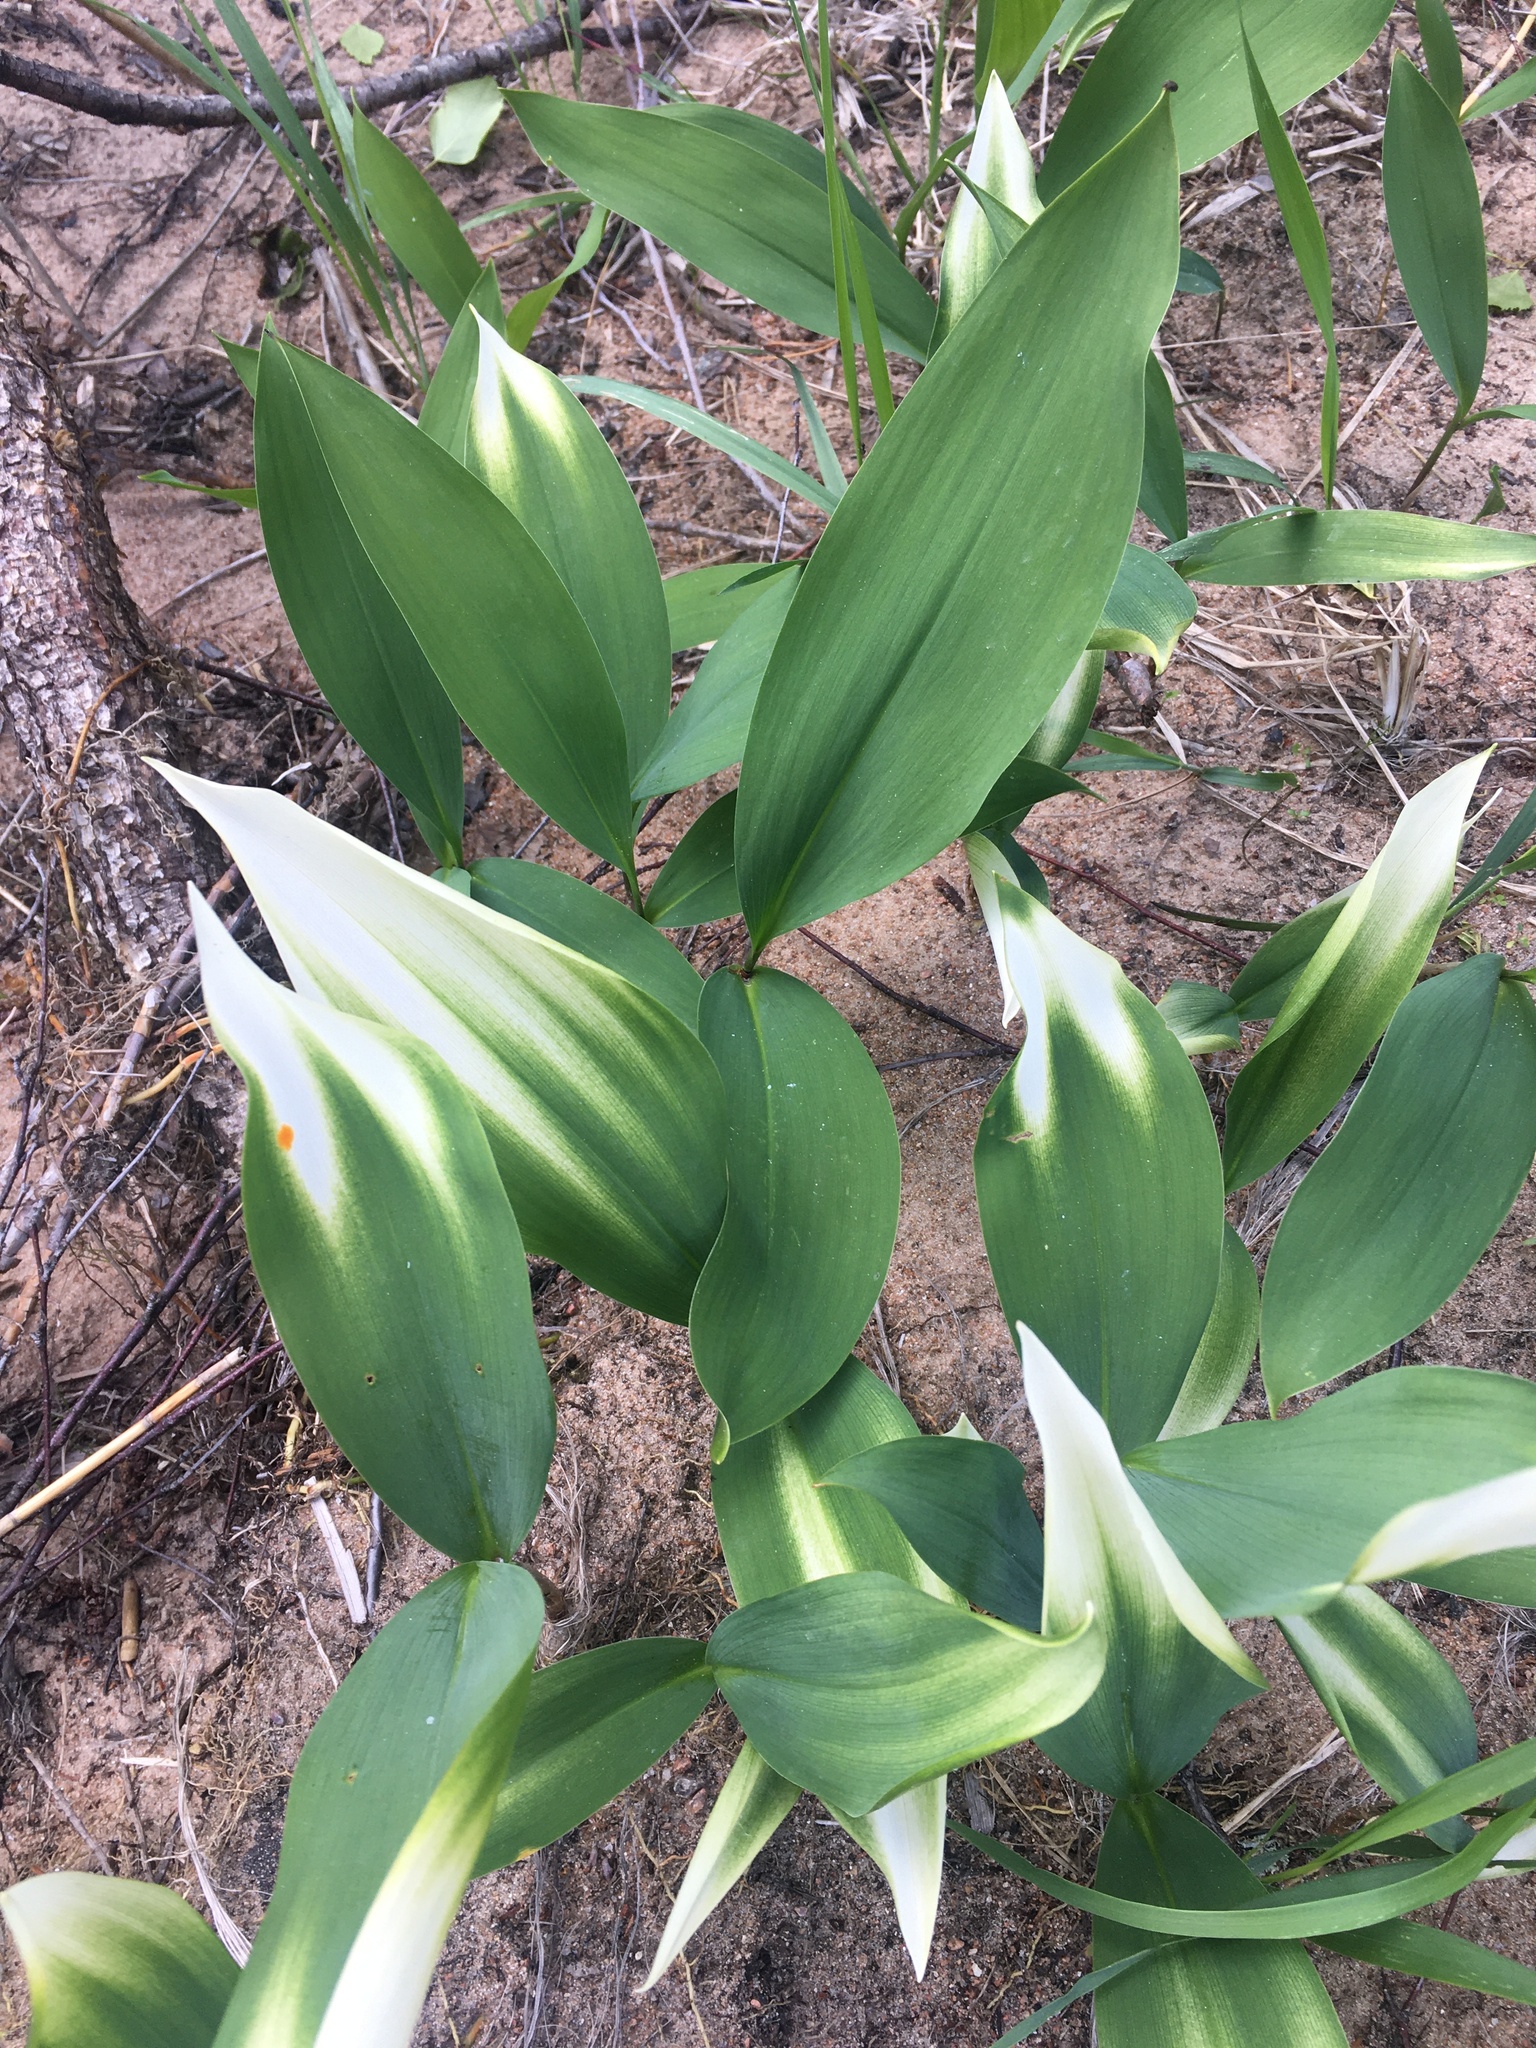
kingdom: Plantae
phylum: Tracheophyta
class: Liliopsida
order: Asparagales
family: Asparagaceae
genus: Convallaria
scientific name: Convallaria majalis
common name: Lily-of-the-valley
